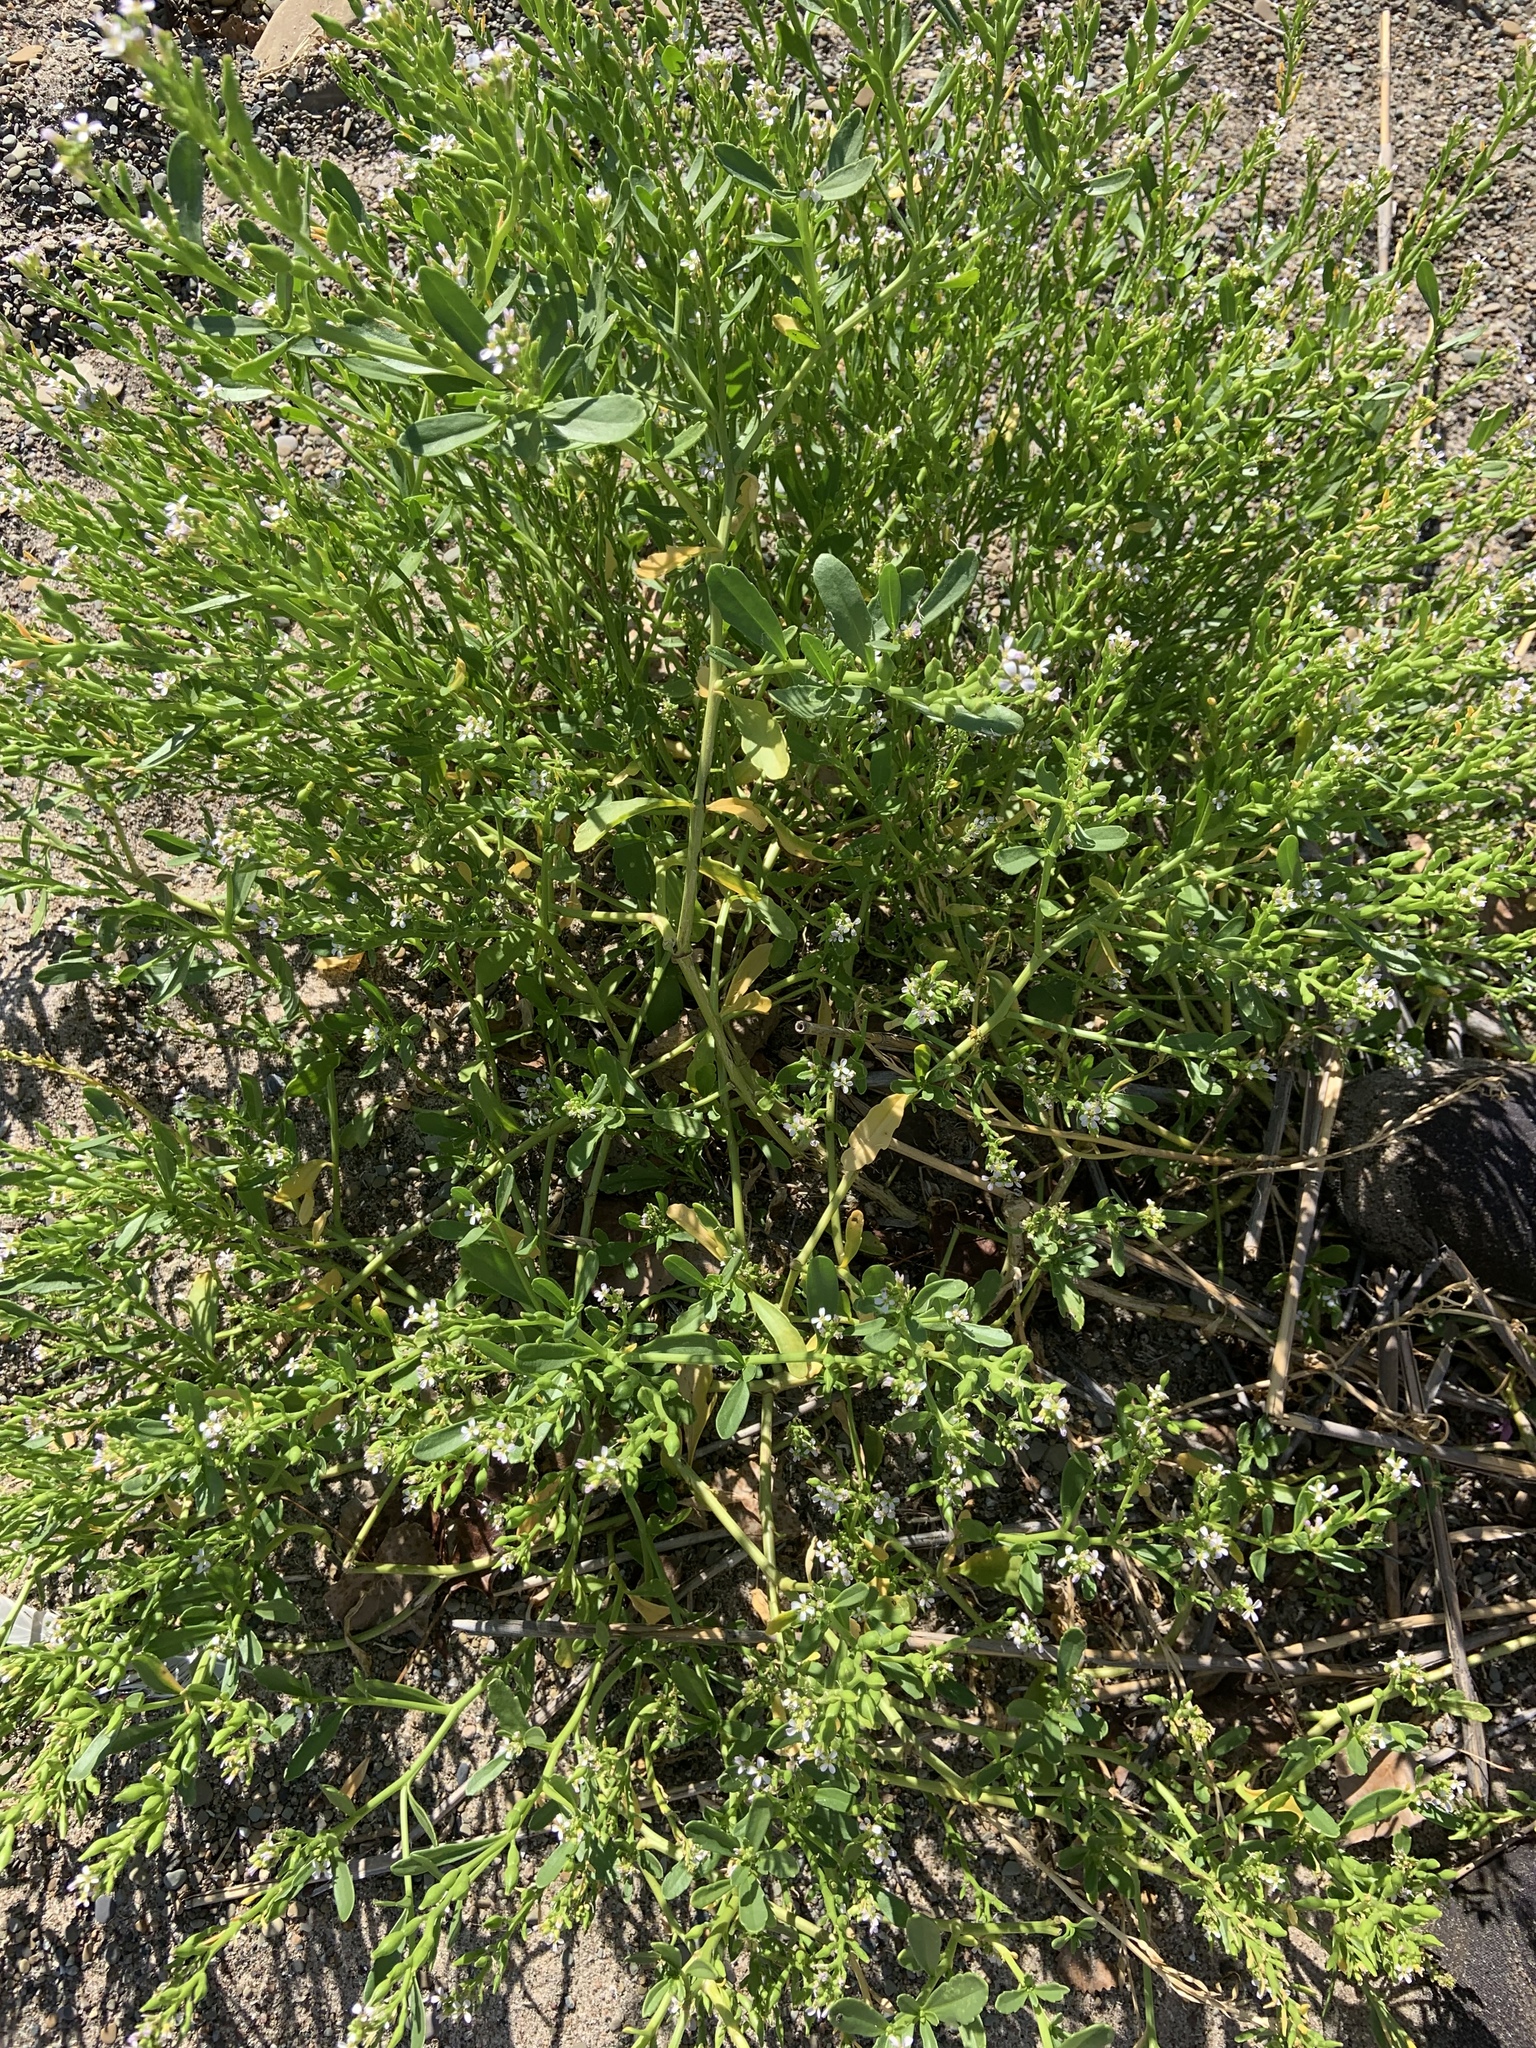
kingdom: Plantae
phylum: Tracheophyta
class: Magnoliopsida
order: Brassicales
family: Brassicaceae
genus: Cakile
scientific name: Cakile edentula
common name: American sea rocket
